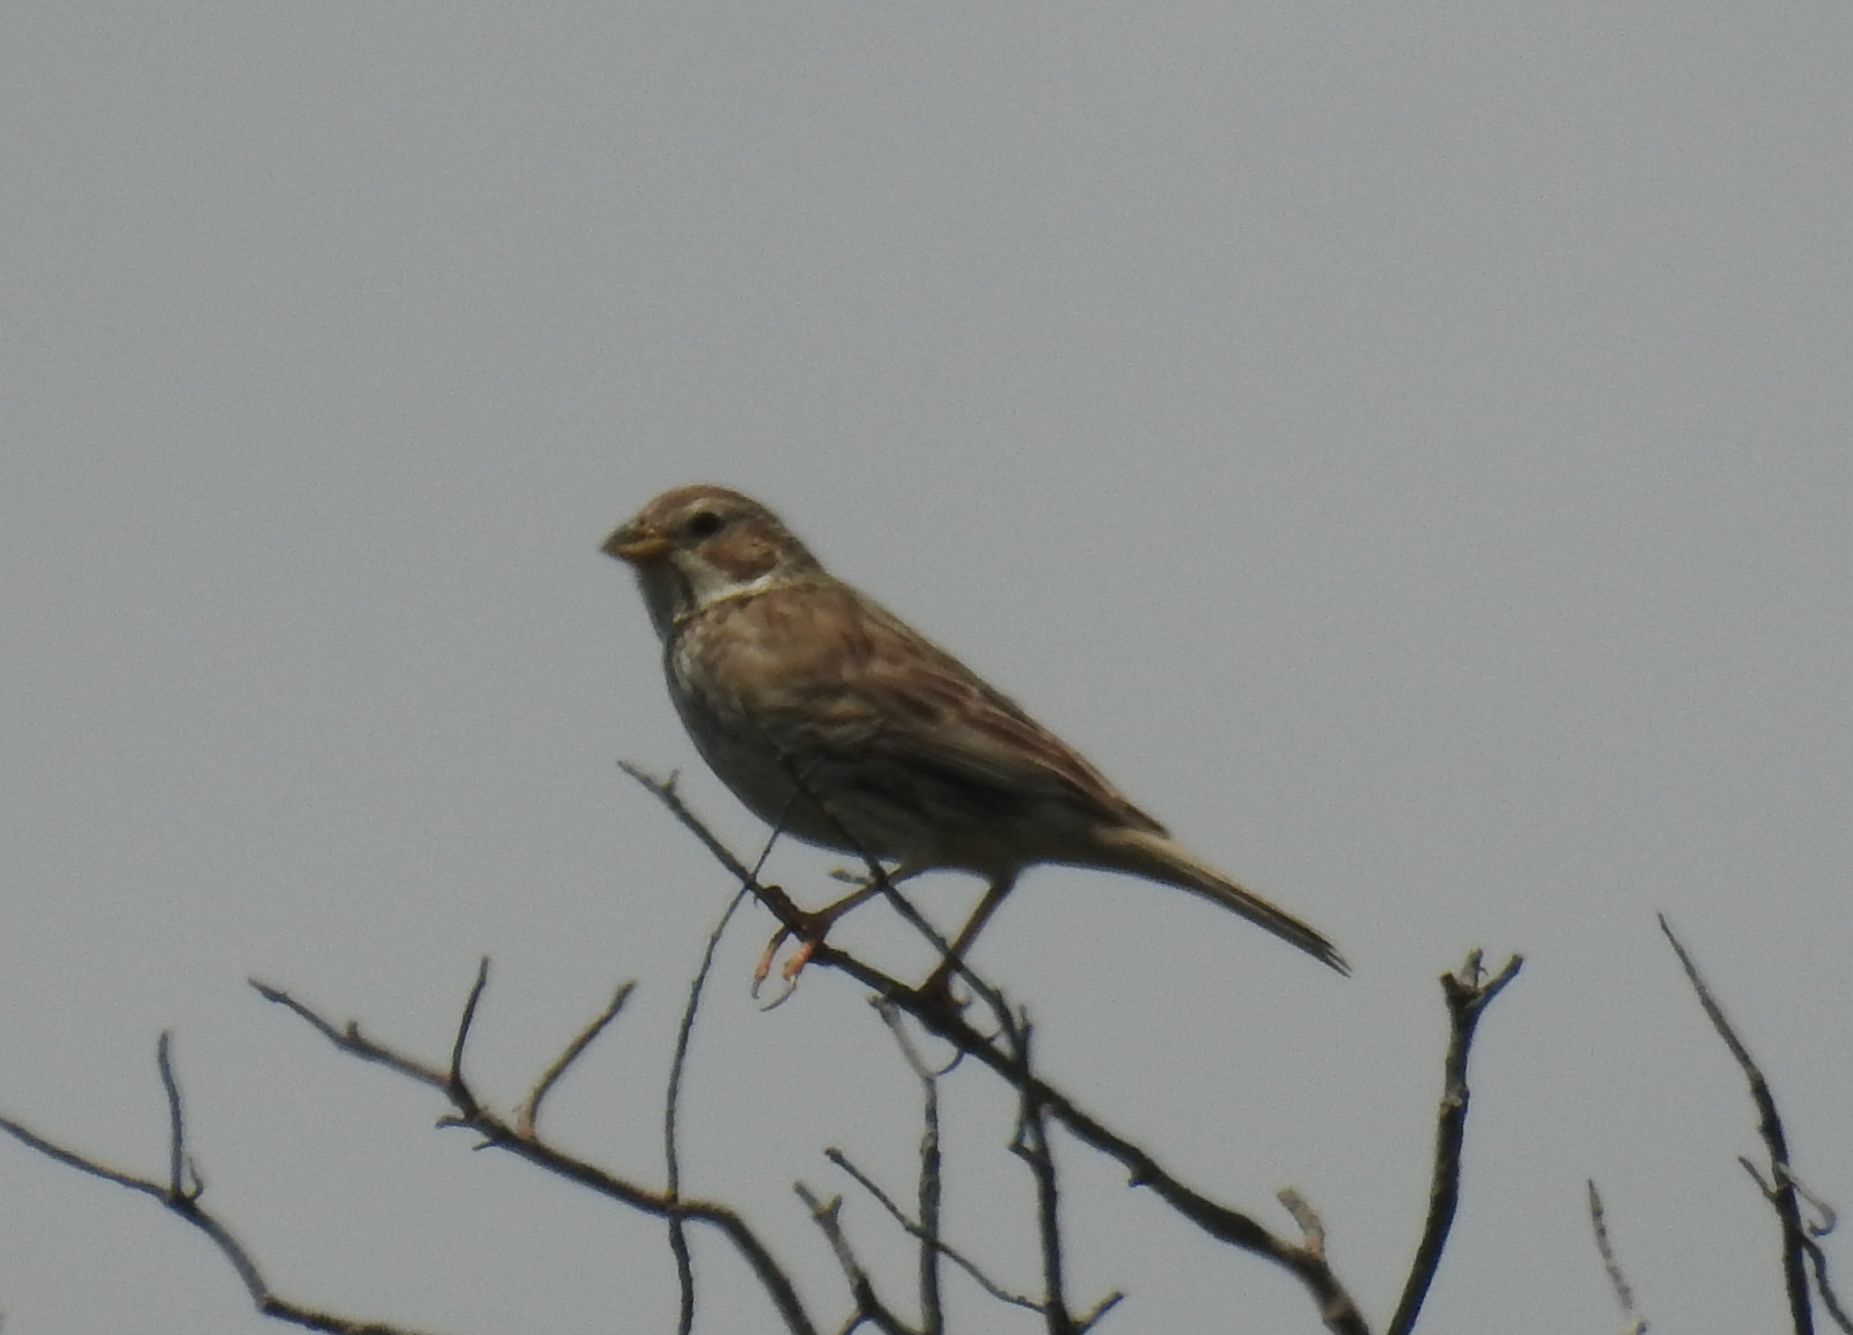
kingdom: Animalia
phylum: Chordata
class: Aves
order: Passeriformes
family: Emberizidae
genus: Emberiza
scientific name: Emberiza calandra
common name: Corn bunting
